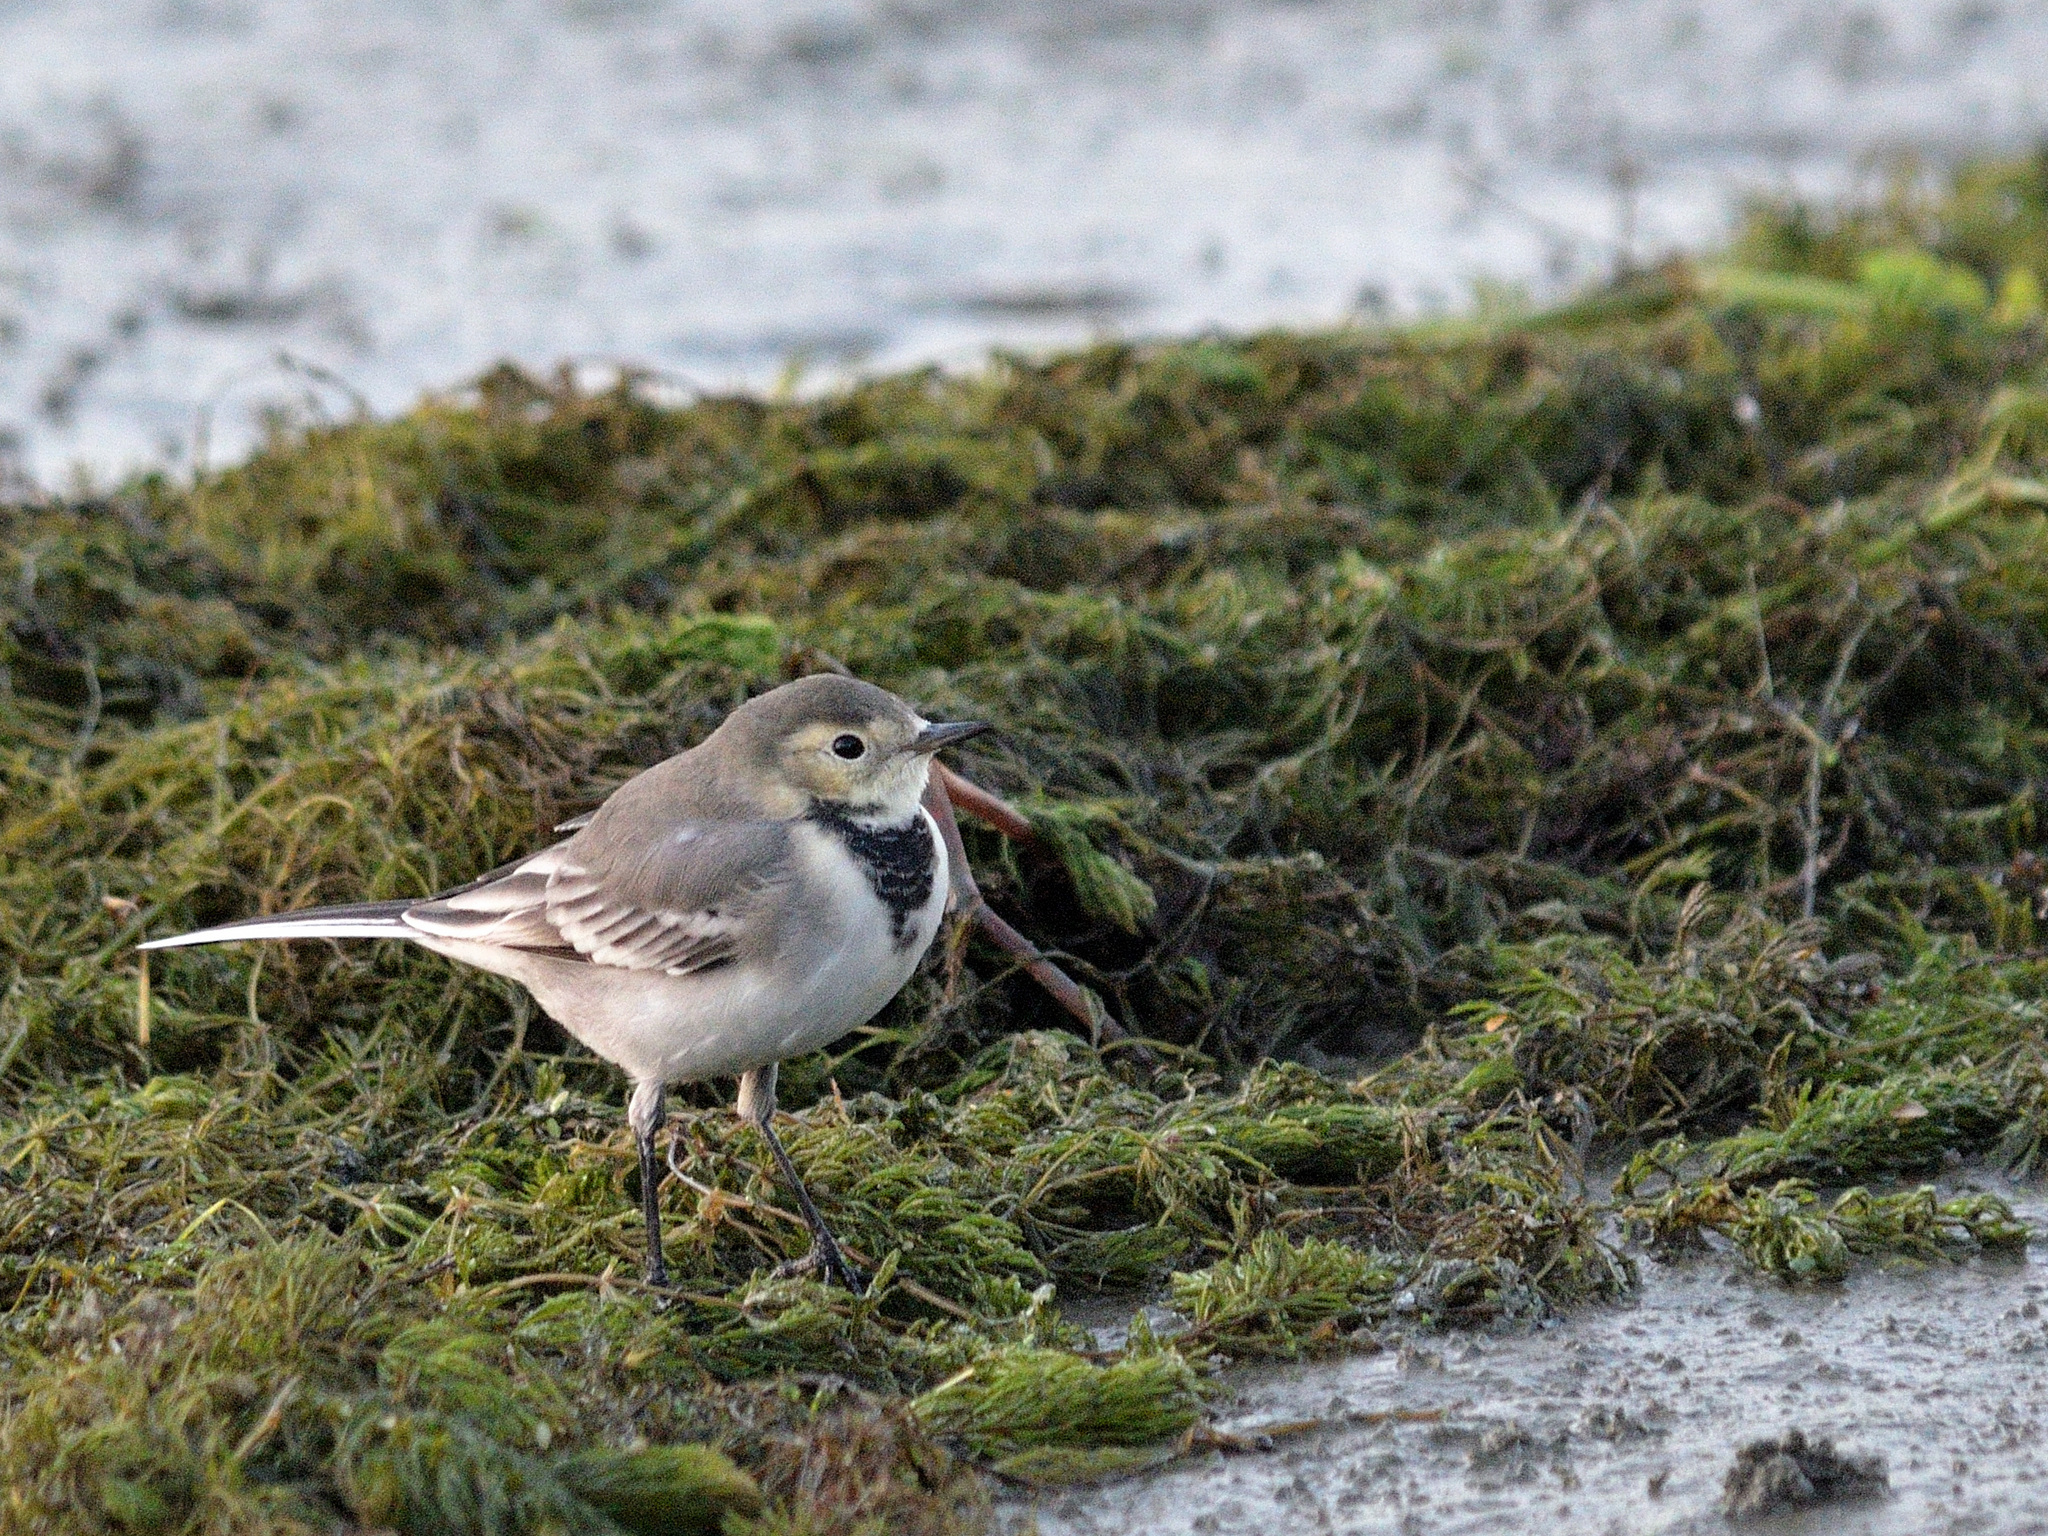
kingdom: Animalia
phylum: Chordata
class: Aves
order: Passeriformes
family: Motacillidae
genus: Motacilla
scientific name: Motacilla alba
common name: White wagtail
